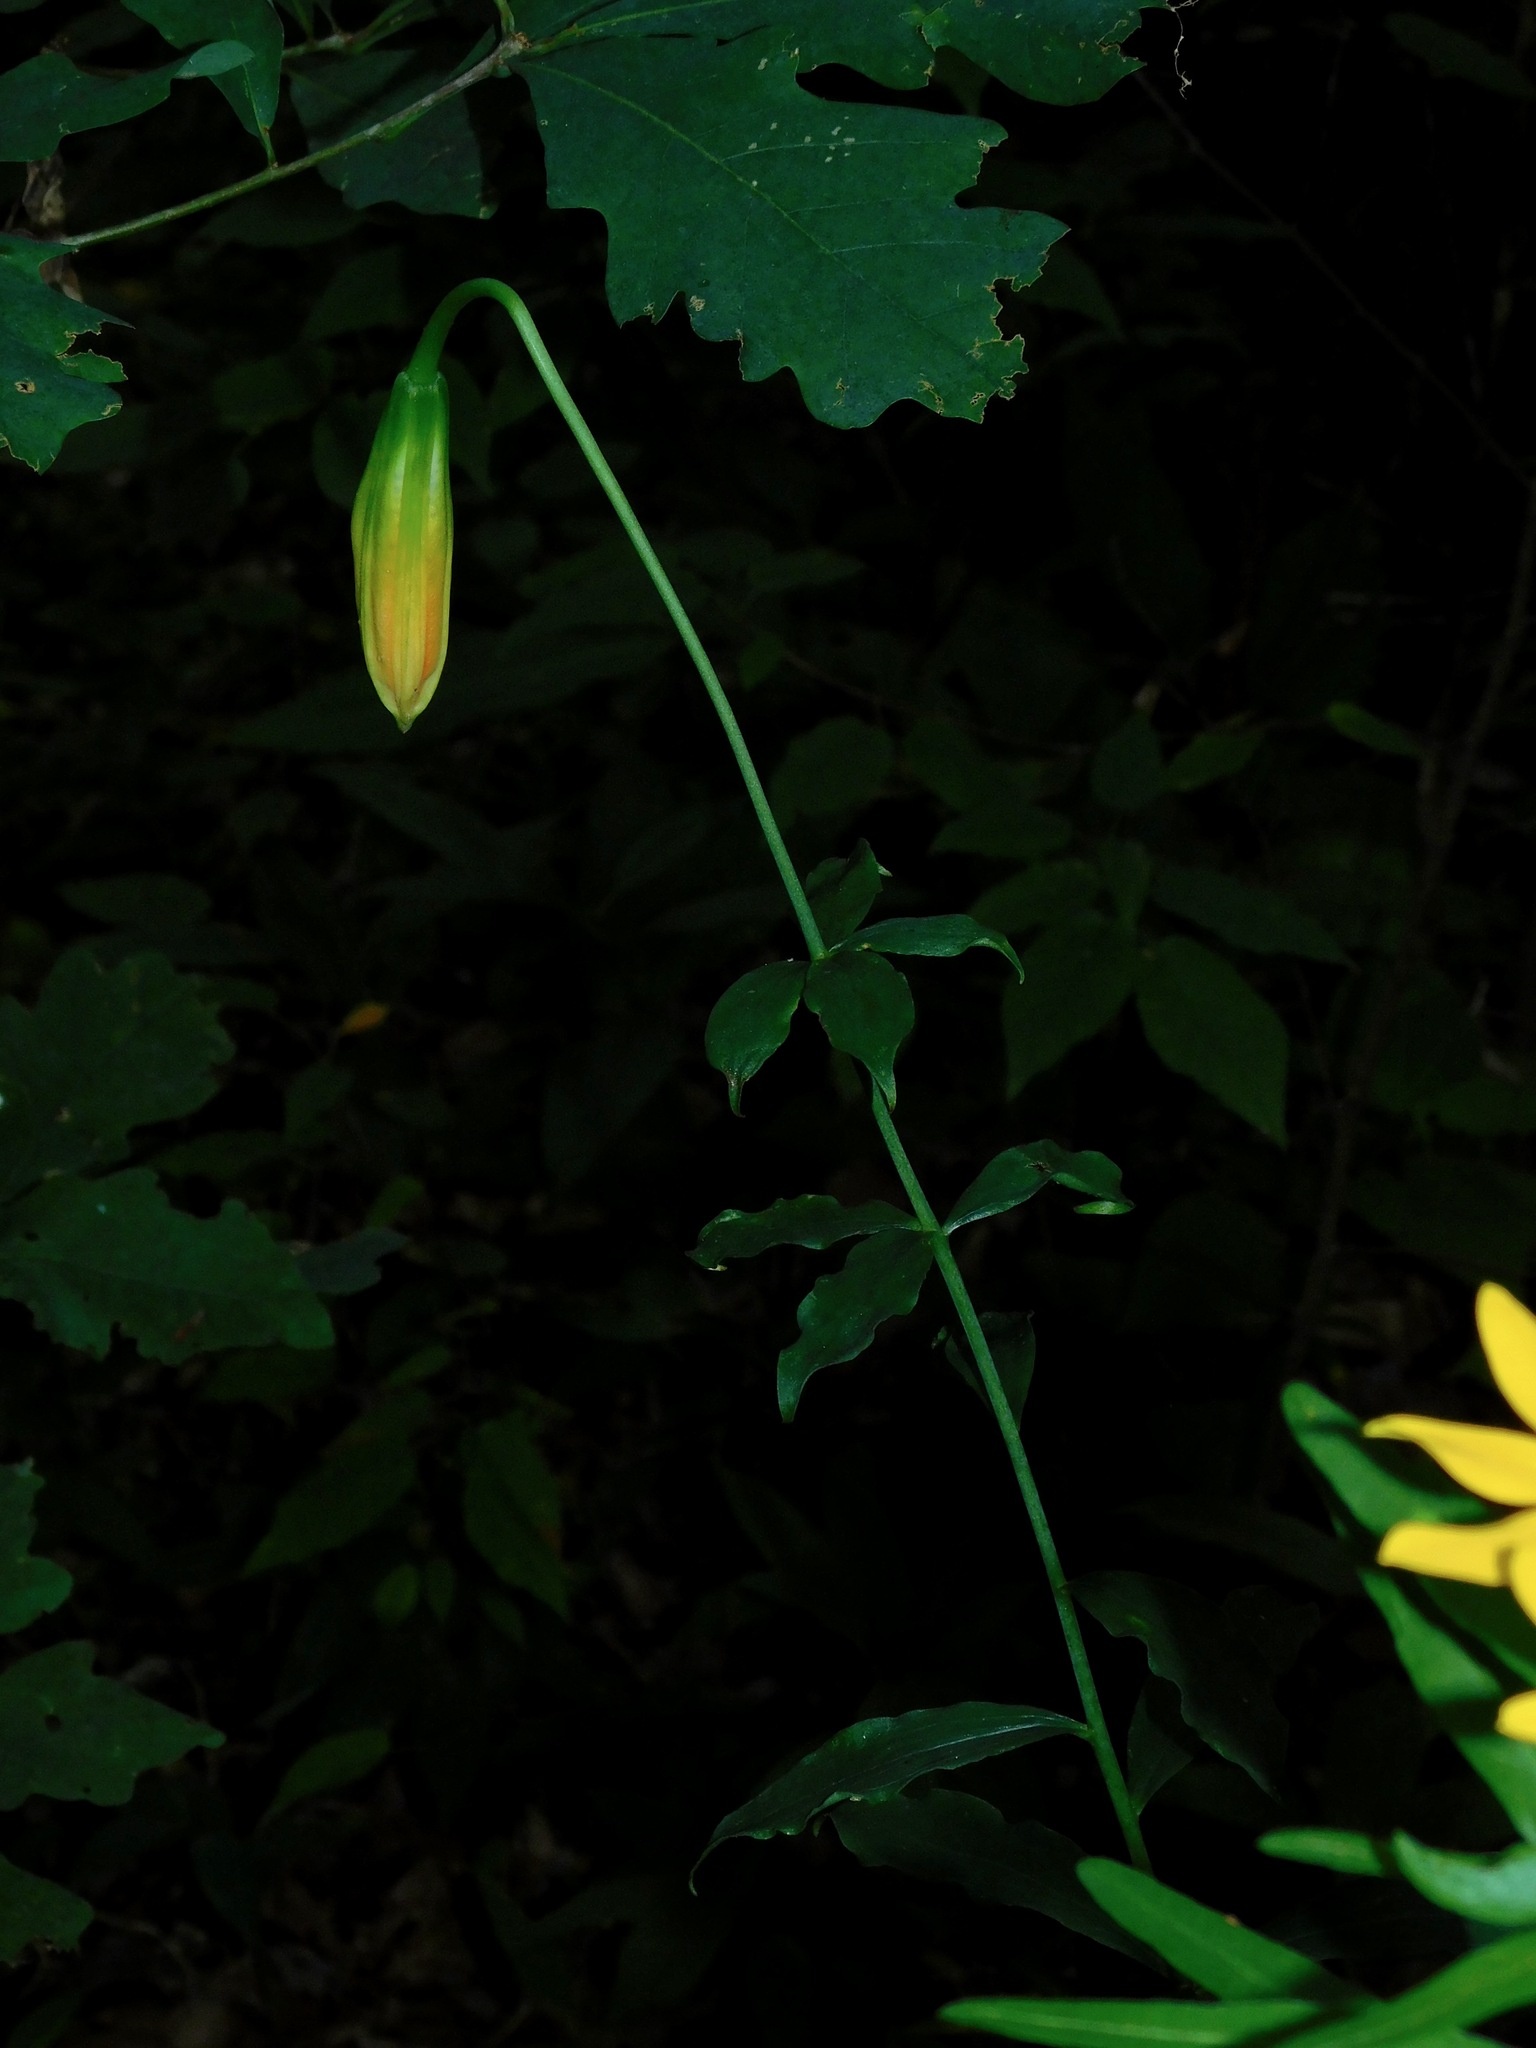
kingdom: Plantae
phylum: Tracheophyta
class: Liliopsida
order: Liliales
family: Liliaceae
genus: Lilium
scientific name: Lilium michauxii
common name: Carolina lily
